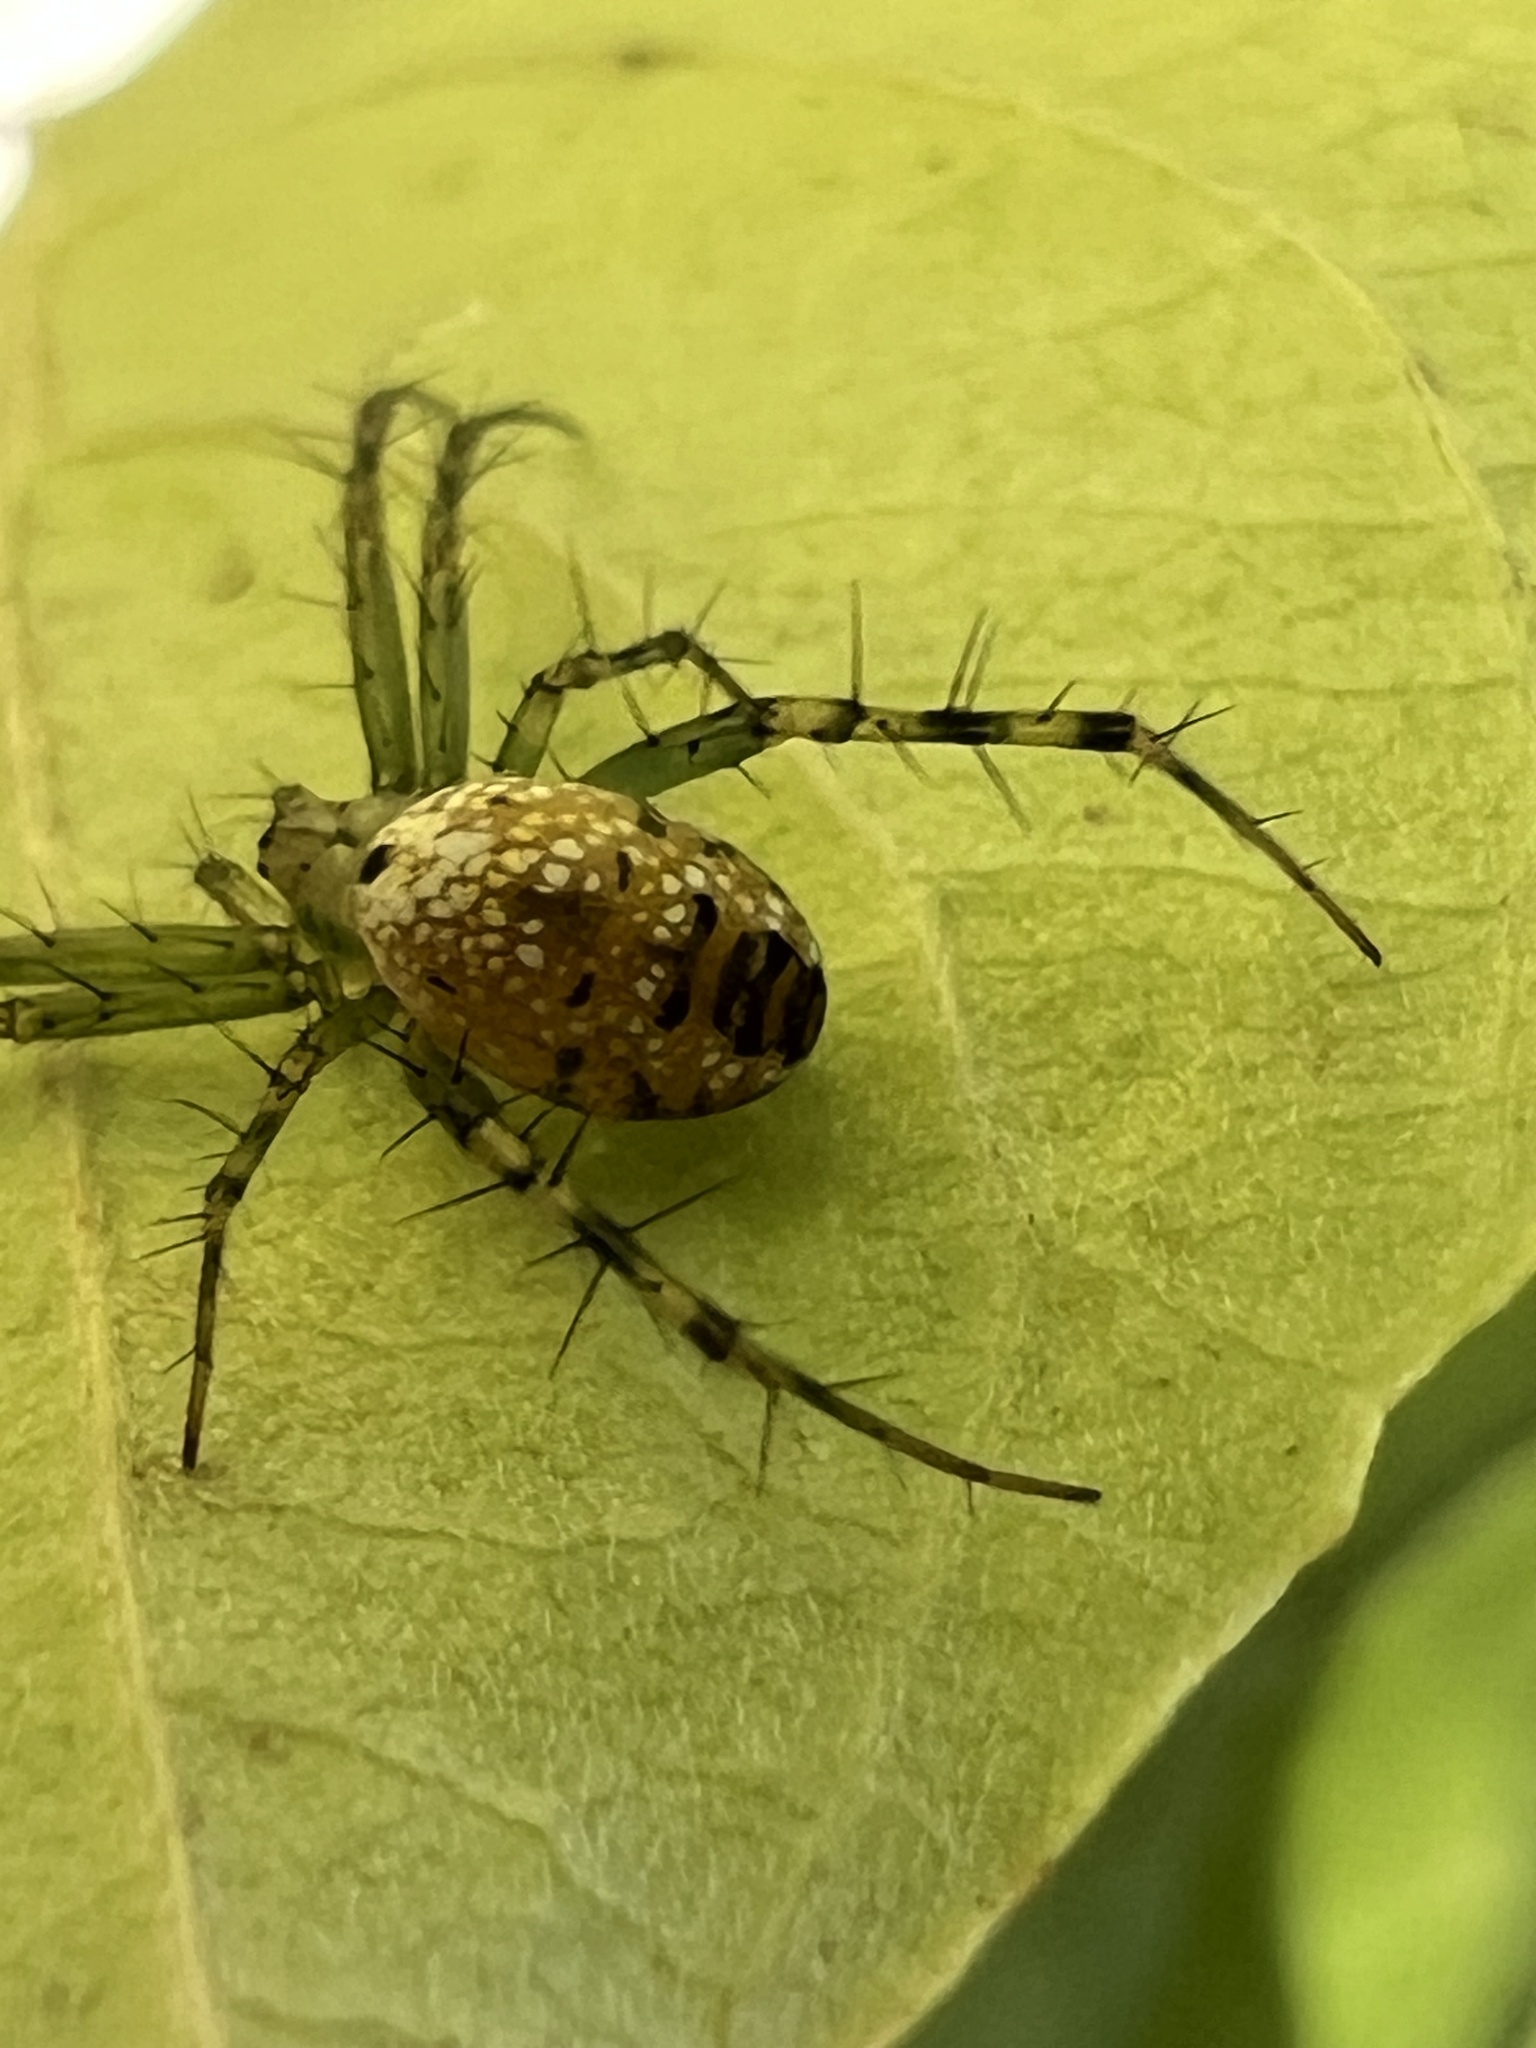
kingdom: Animalia
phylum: Arthropoda
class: Arachnida
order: Araneae
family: Araneidae
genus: Mangora
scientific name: Mangora spiculata
